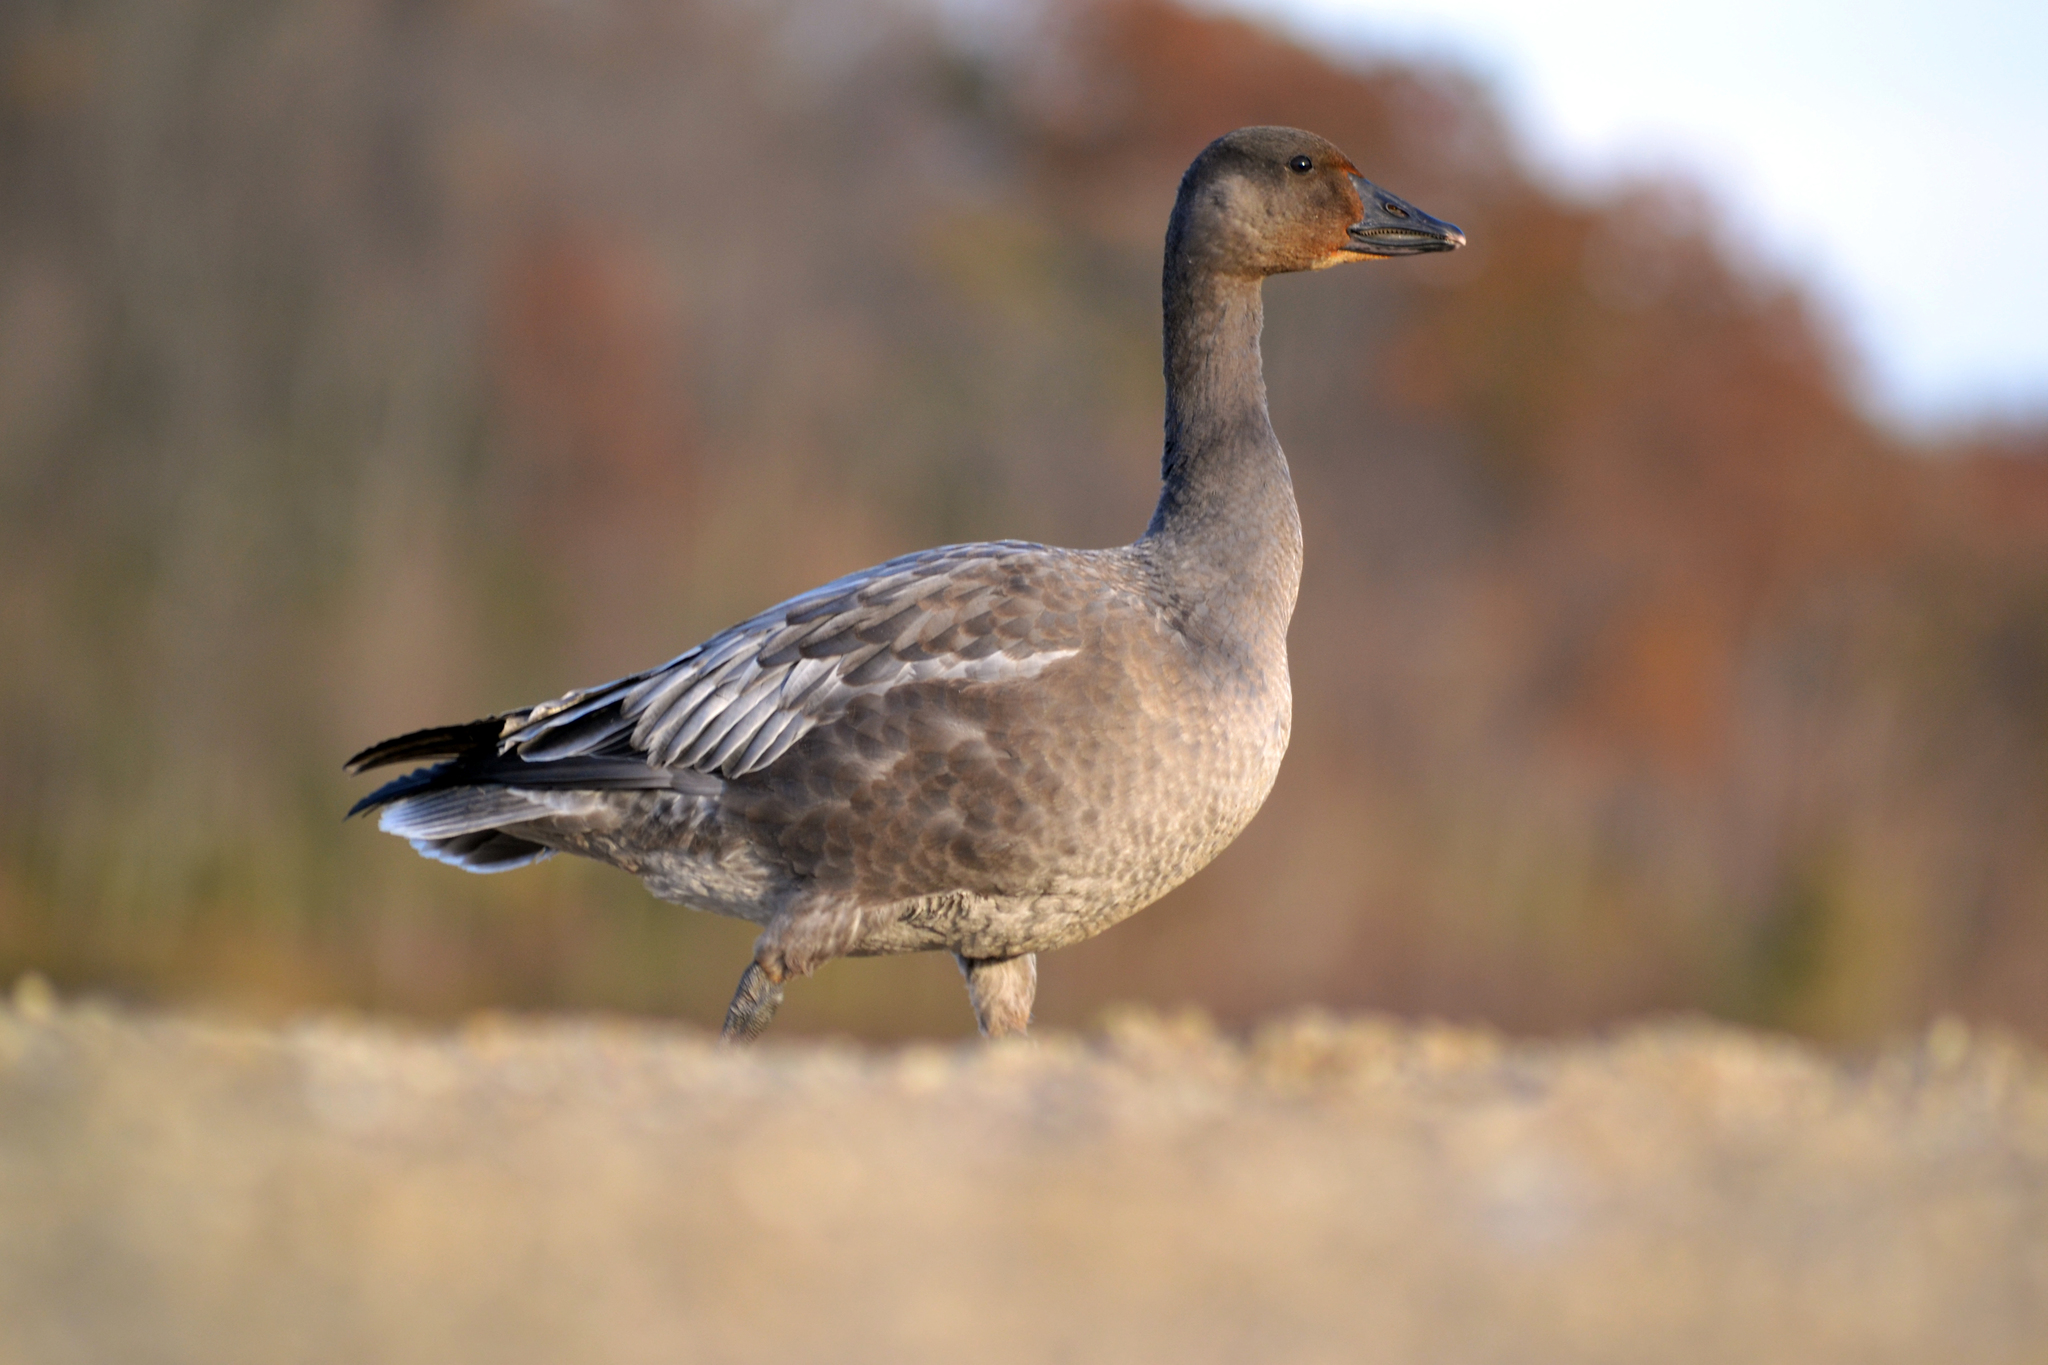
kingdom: Animalia
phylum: Chordata
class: Aves
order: Anseriformes
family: Anatidae
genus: Anser
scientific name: Anser caerulescens
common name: Snow goose
